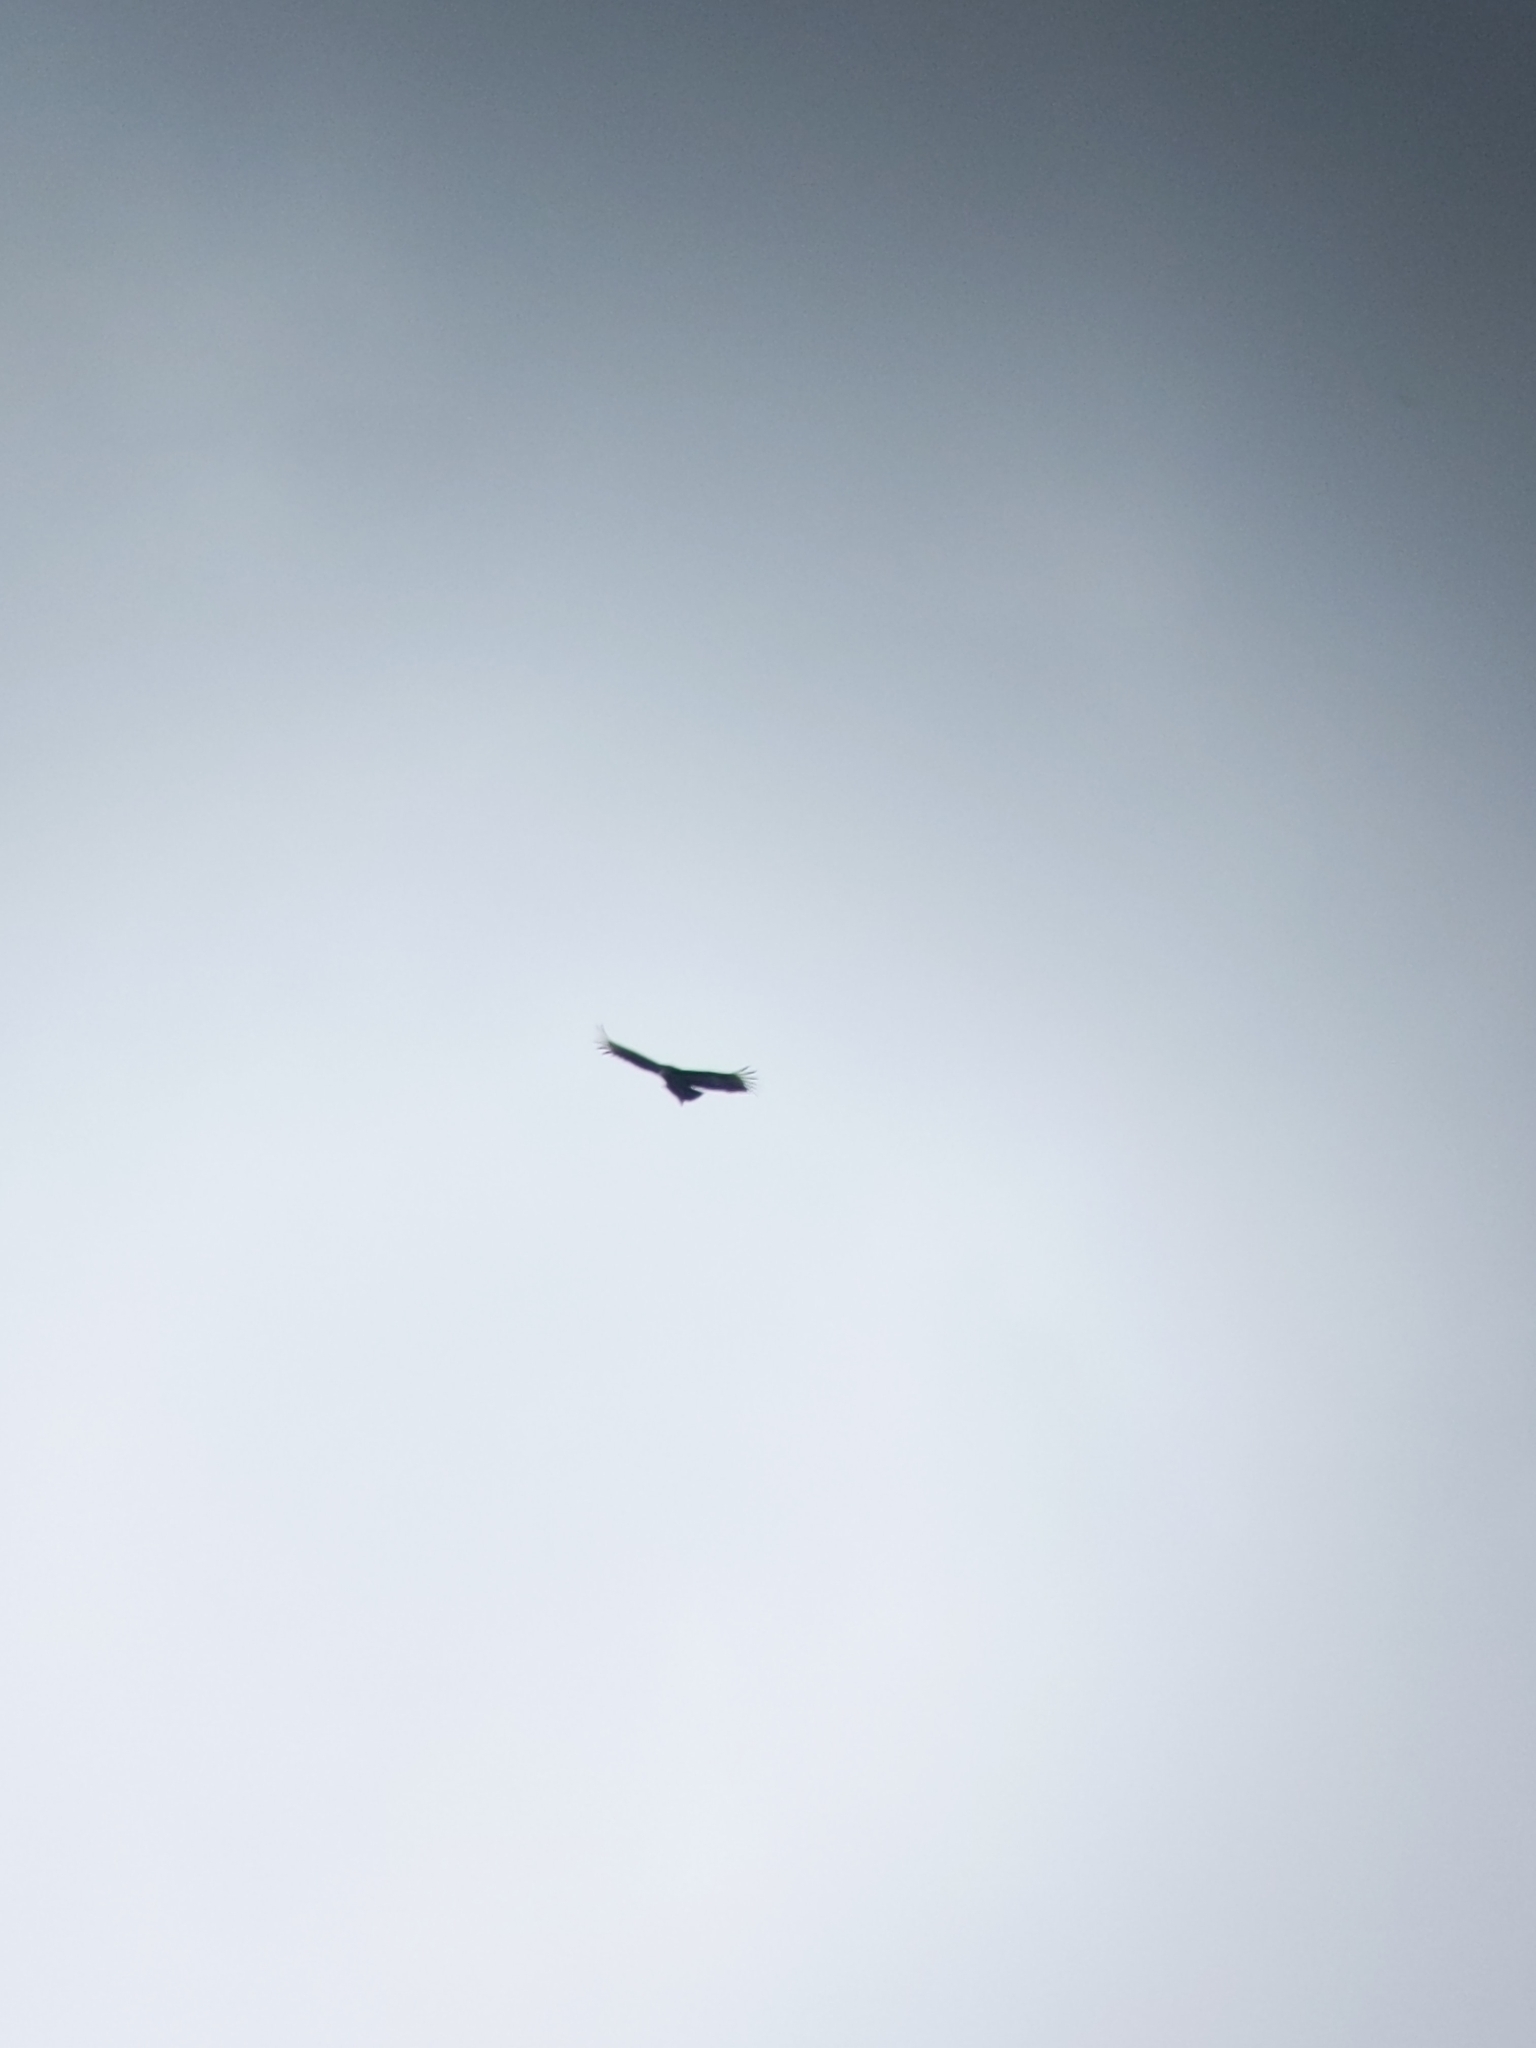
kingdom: Animalia
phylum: Chordata
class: Aves
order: Accipitriformes
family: Cathartidae
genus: Coragyps
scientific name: Coragyps atratus
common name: Black vulture
